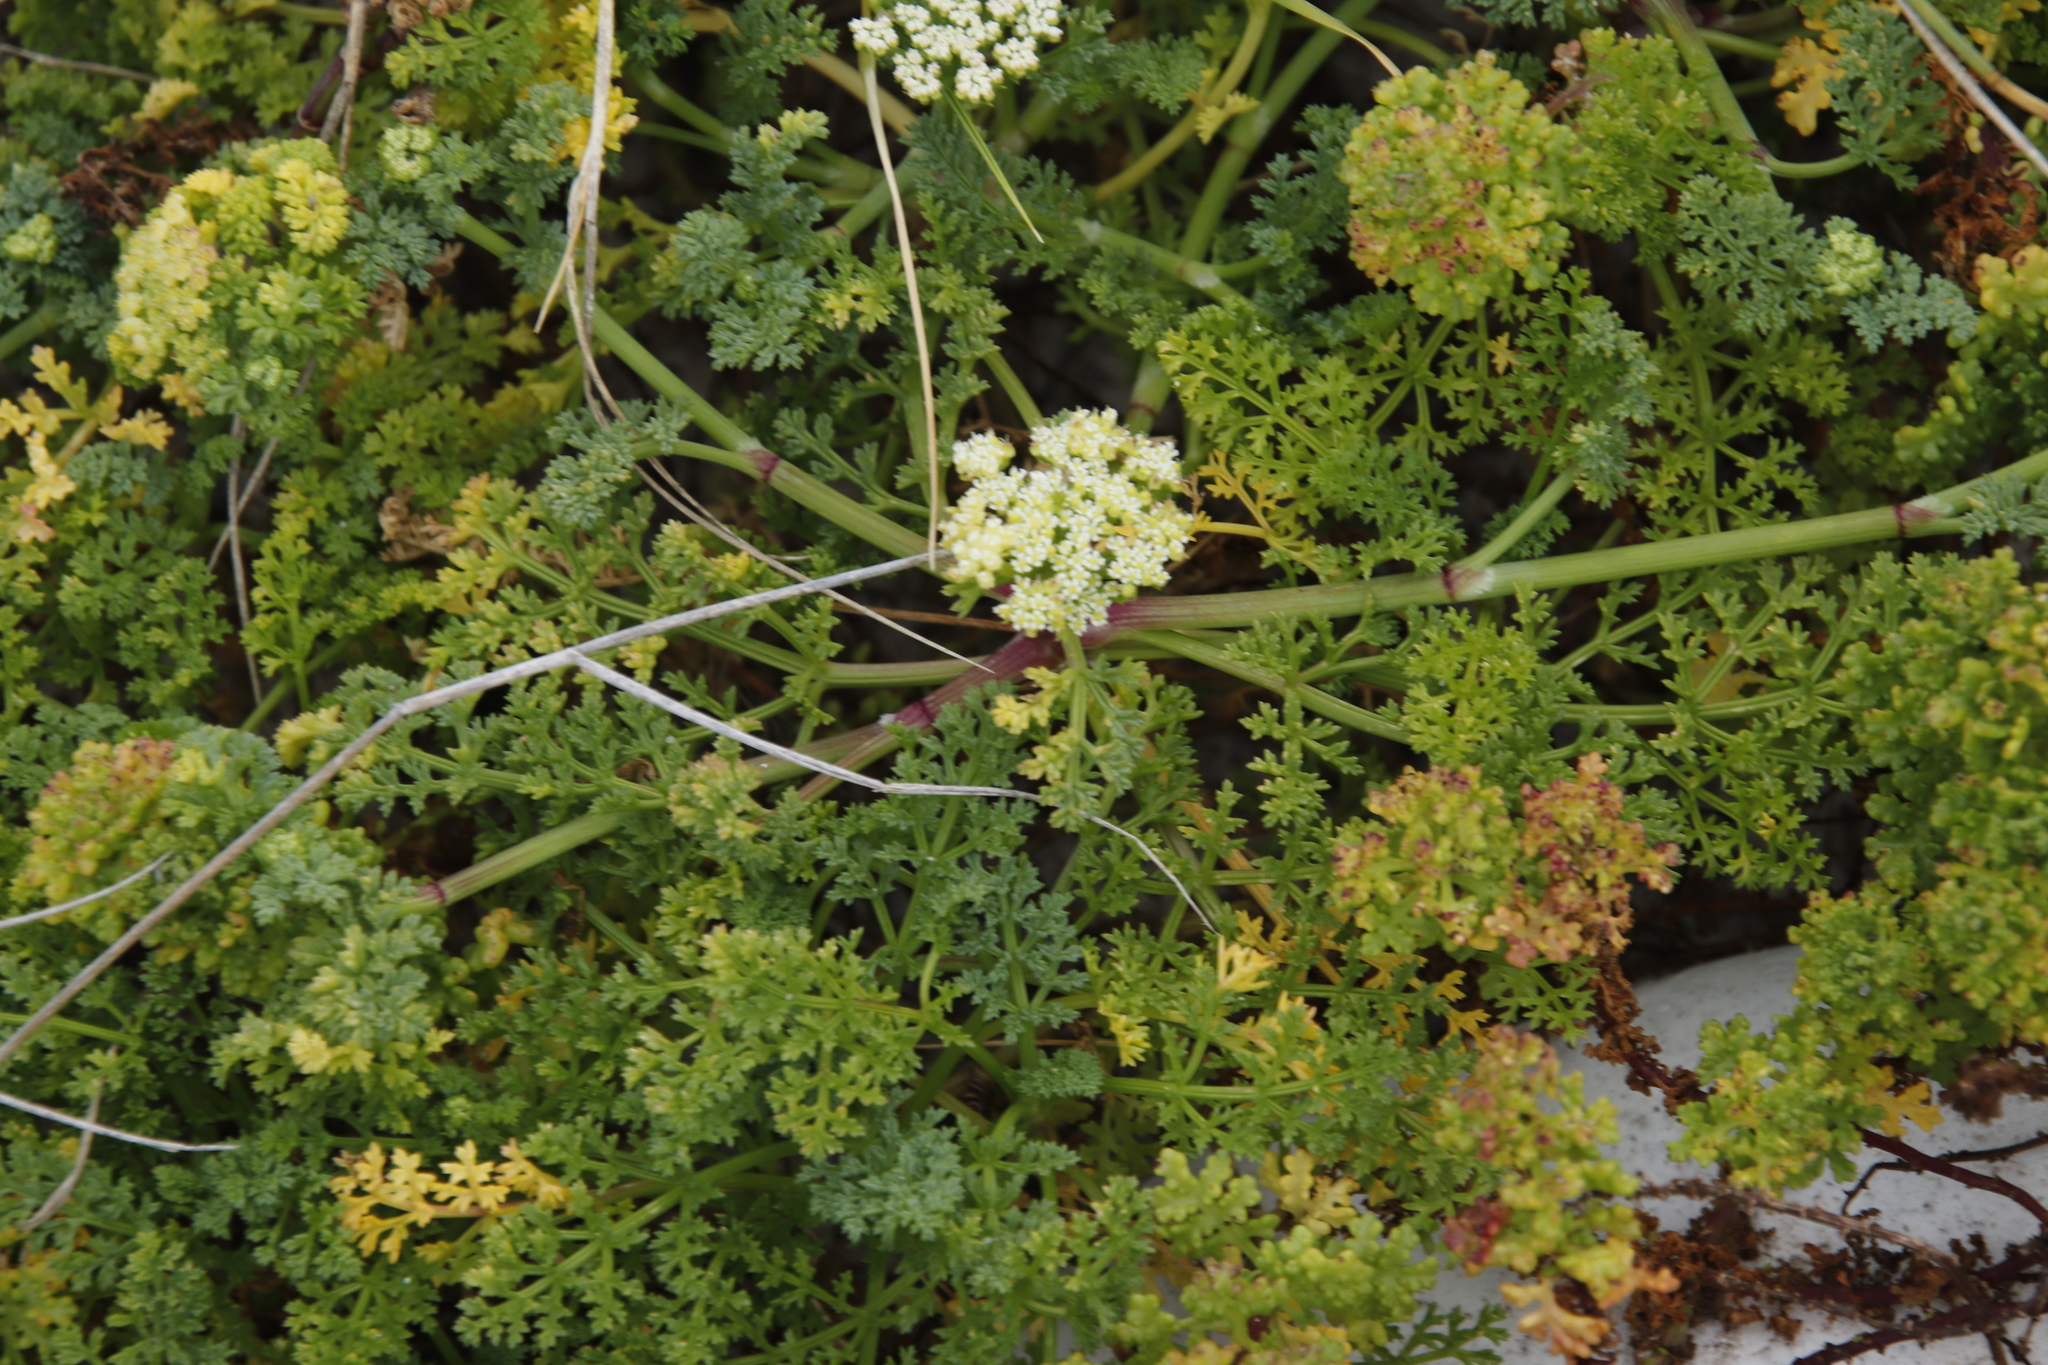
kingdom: Plantae
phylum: Tracheophyta
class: Magnoliopsida
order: Apiales
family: Apiaceae
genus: Dasispermum
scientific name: Dasispermum suffruticosum
